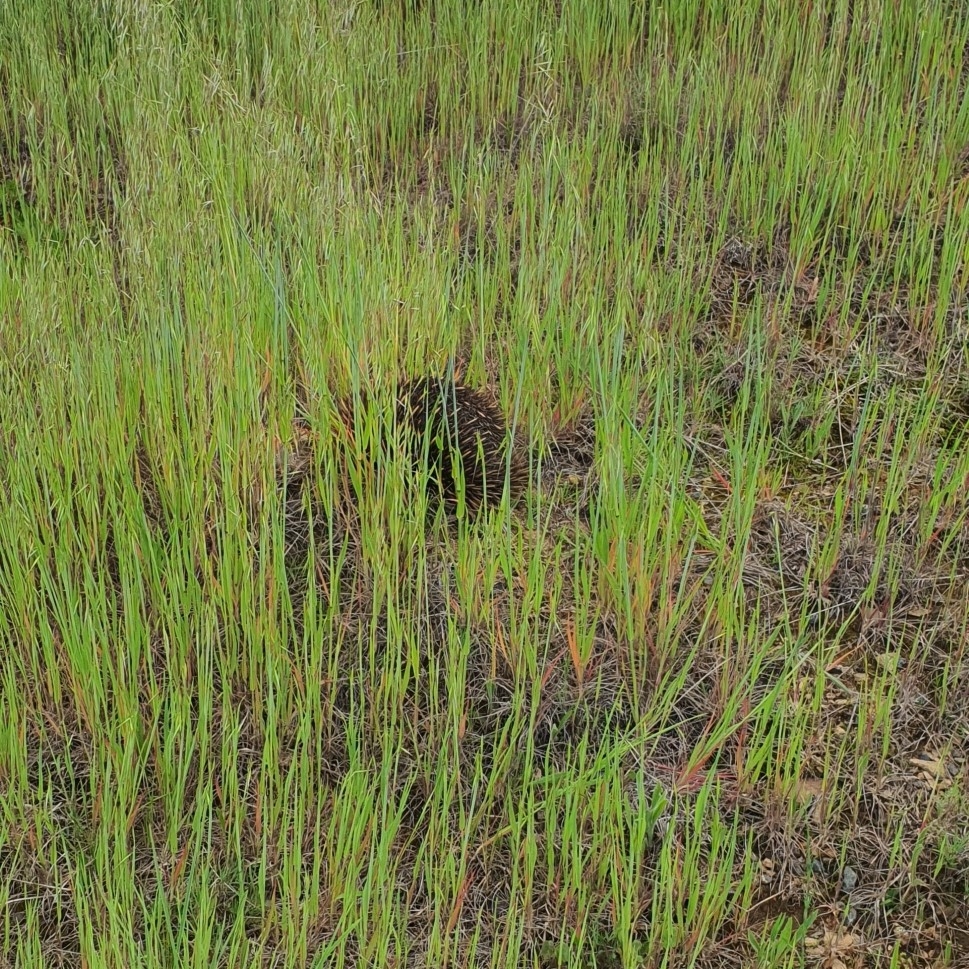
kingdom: Animalia
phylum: Chordata
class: Mammalia
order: Monotremata
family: Tachyglossidae
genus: Tachyglossus
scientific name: Tachyglossus aculeatus
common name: Short-beaked echidna
